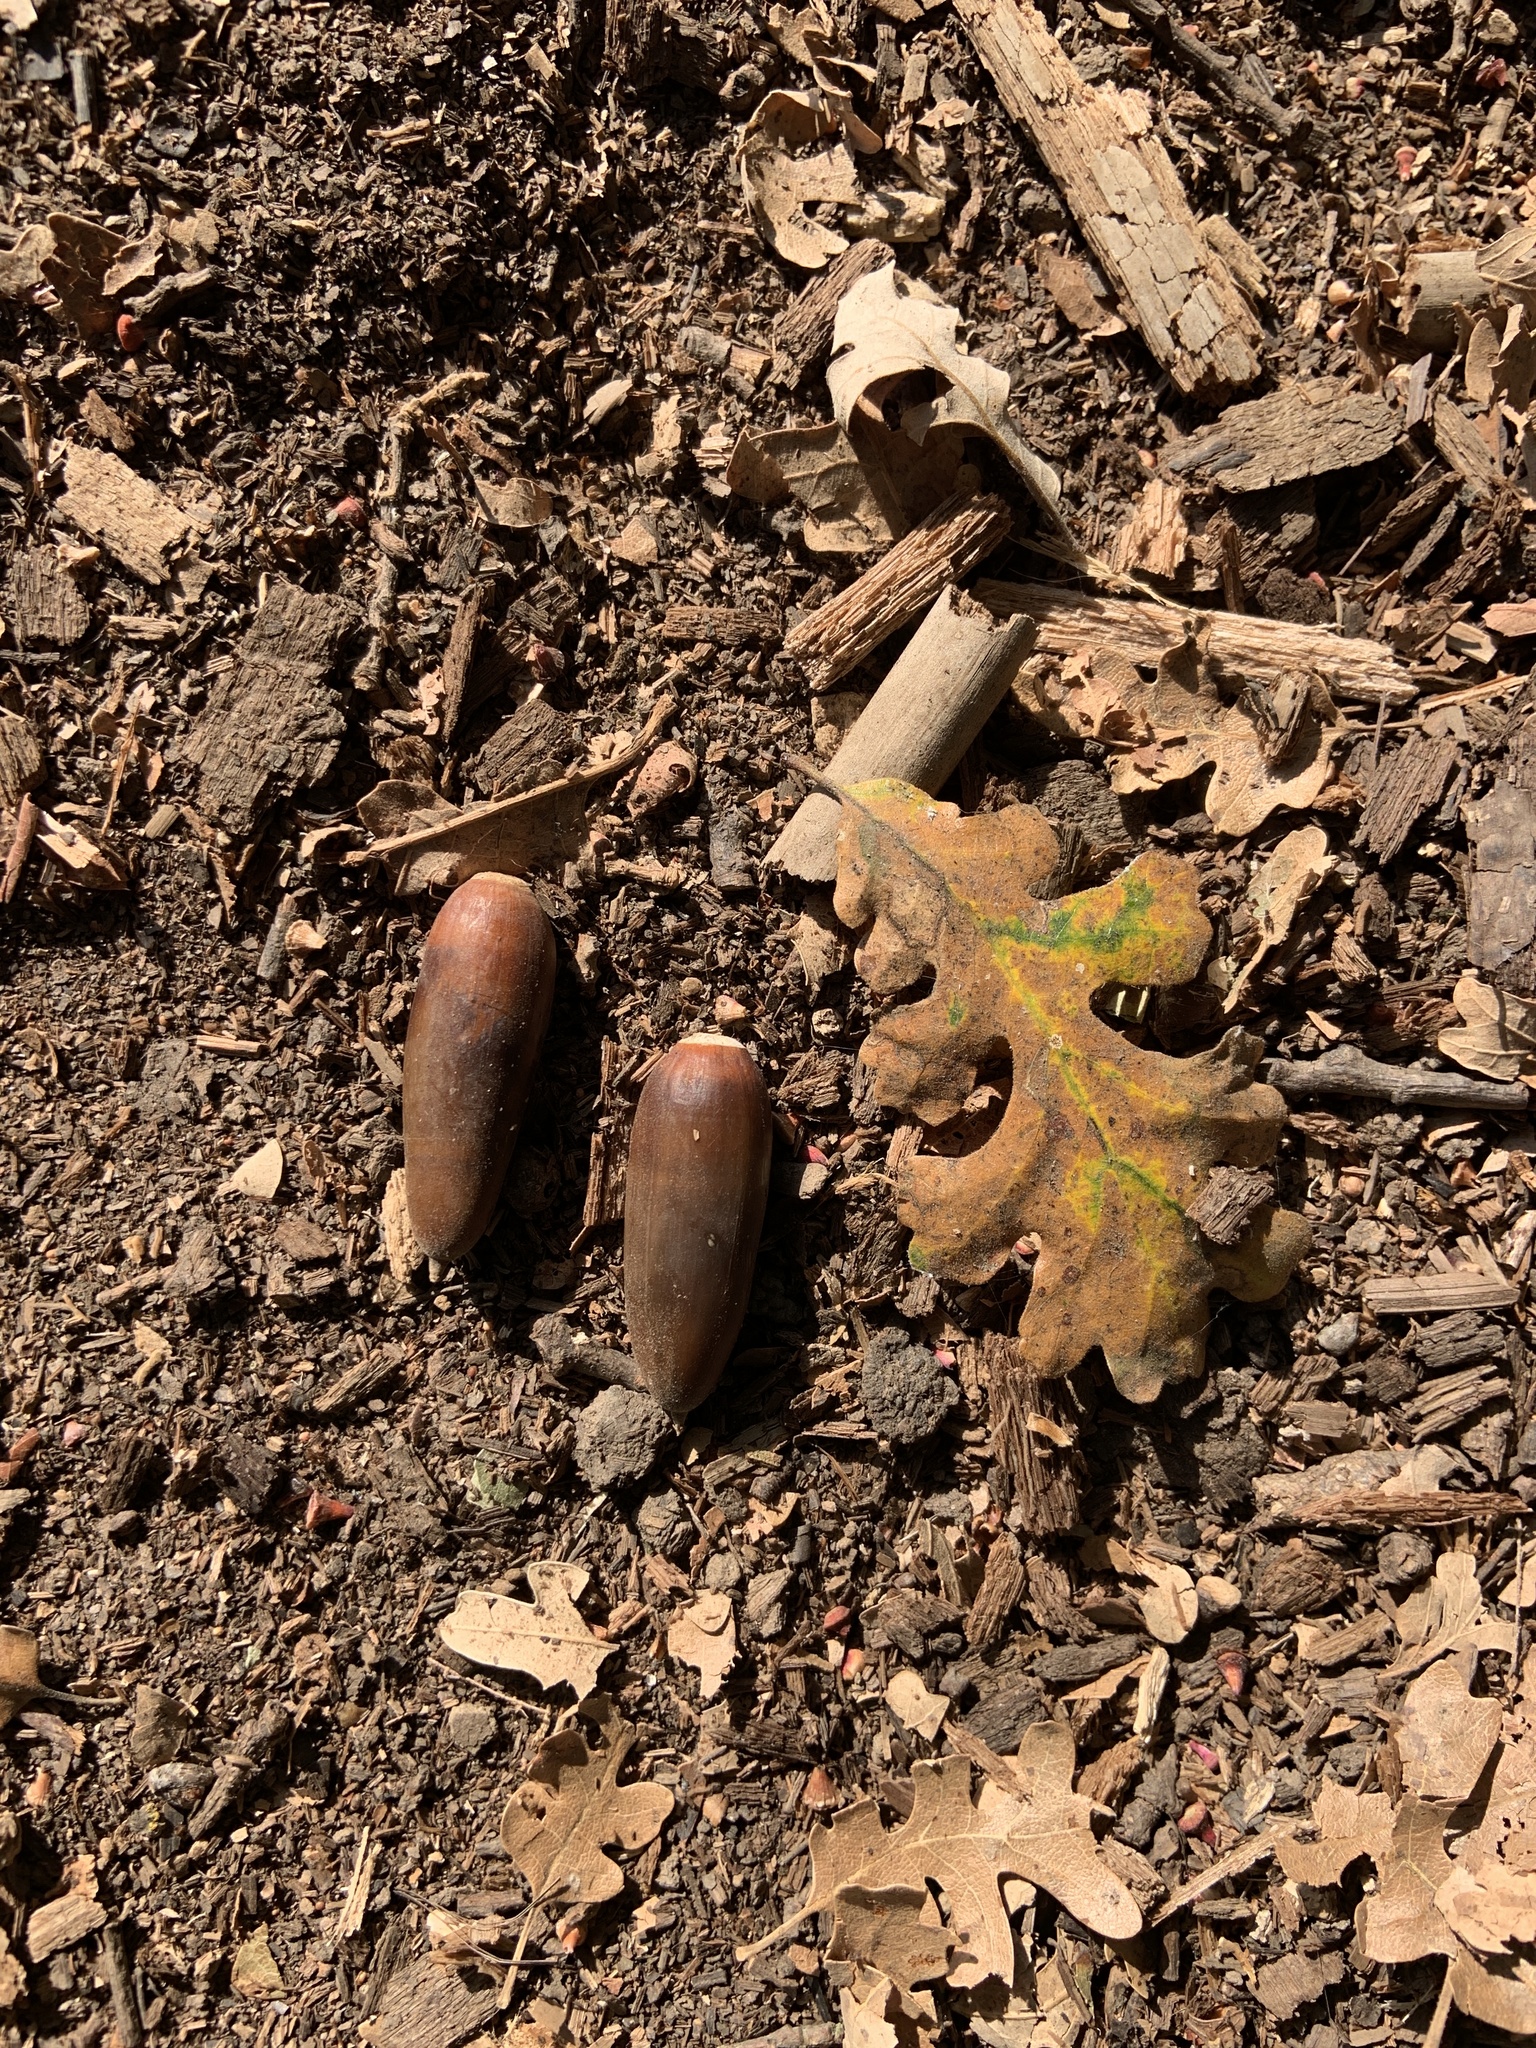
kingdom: Plantae
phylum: Tracheophyta
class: Magnoliopsida
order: Fagales
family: Fagaceae
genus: Quercus
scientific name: Quercus lobata
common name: Valley oak
